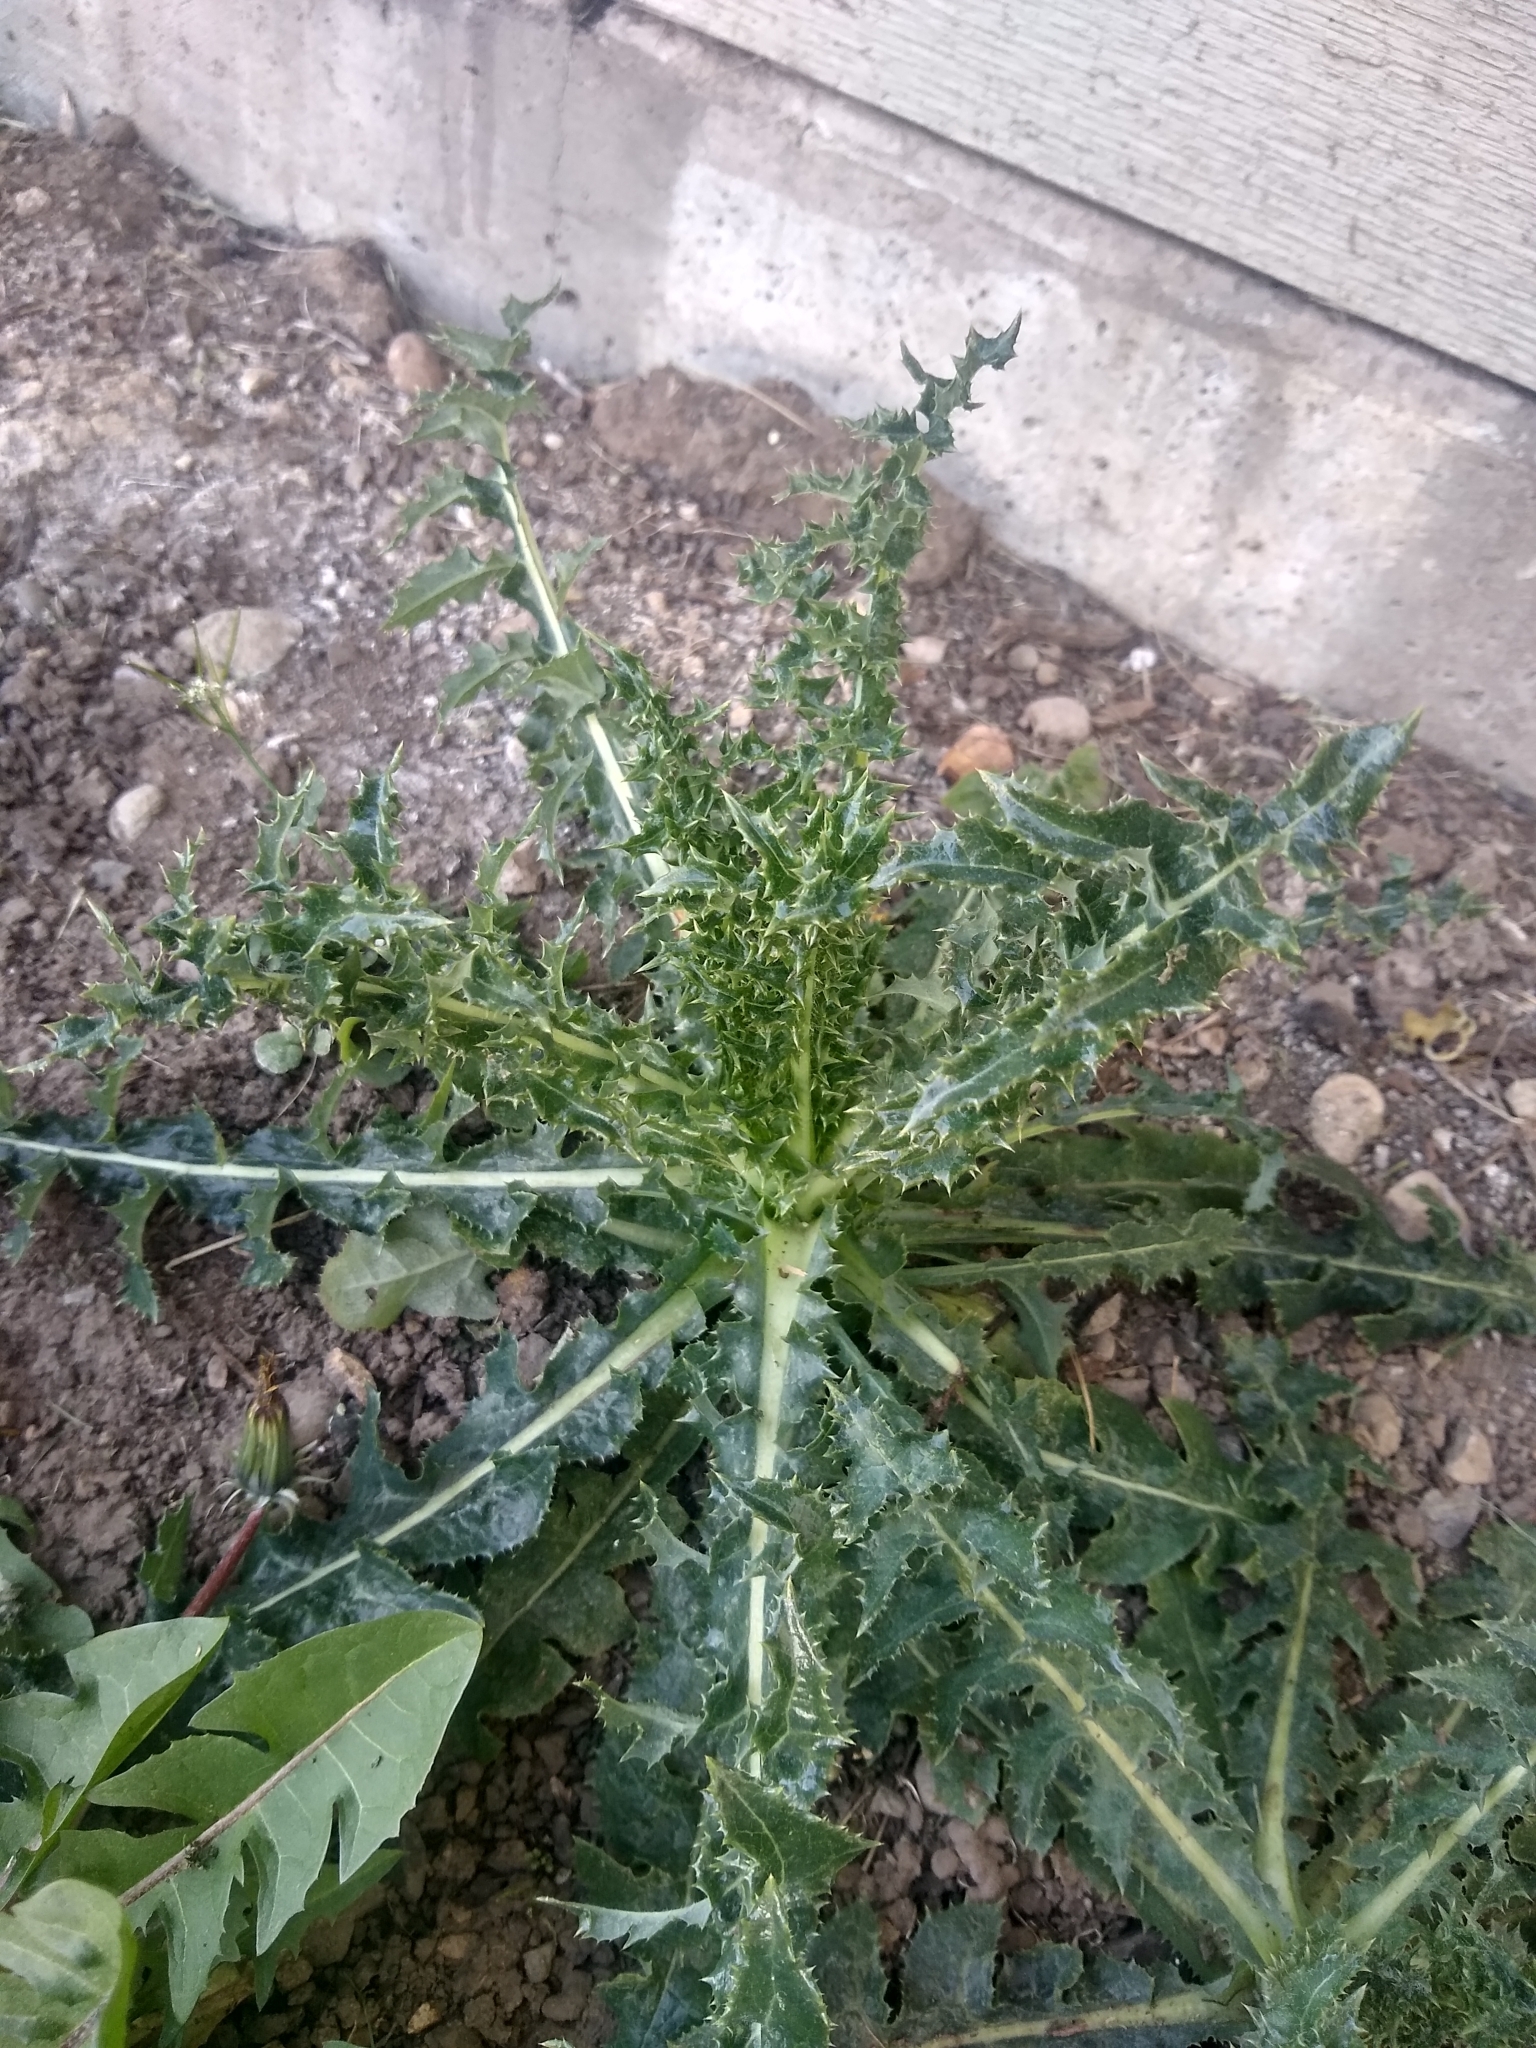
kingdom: Plantae
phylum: Tracheophyta
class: Magnoliopsida
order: Asterales
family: Asteraceae
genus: Sonchus
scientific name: Sonchus asper
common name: Prickly sow-thistle
